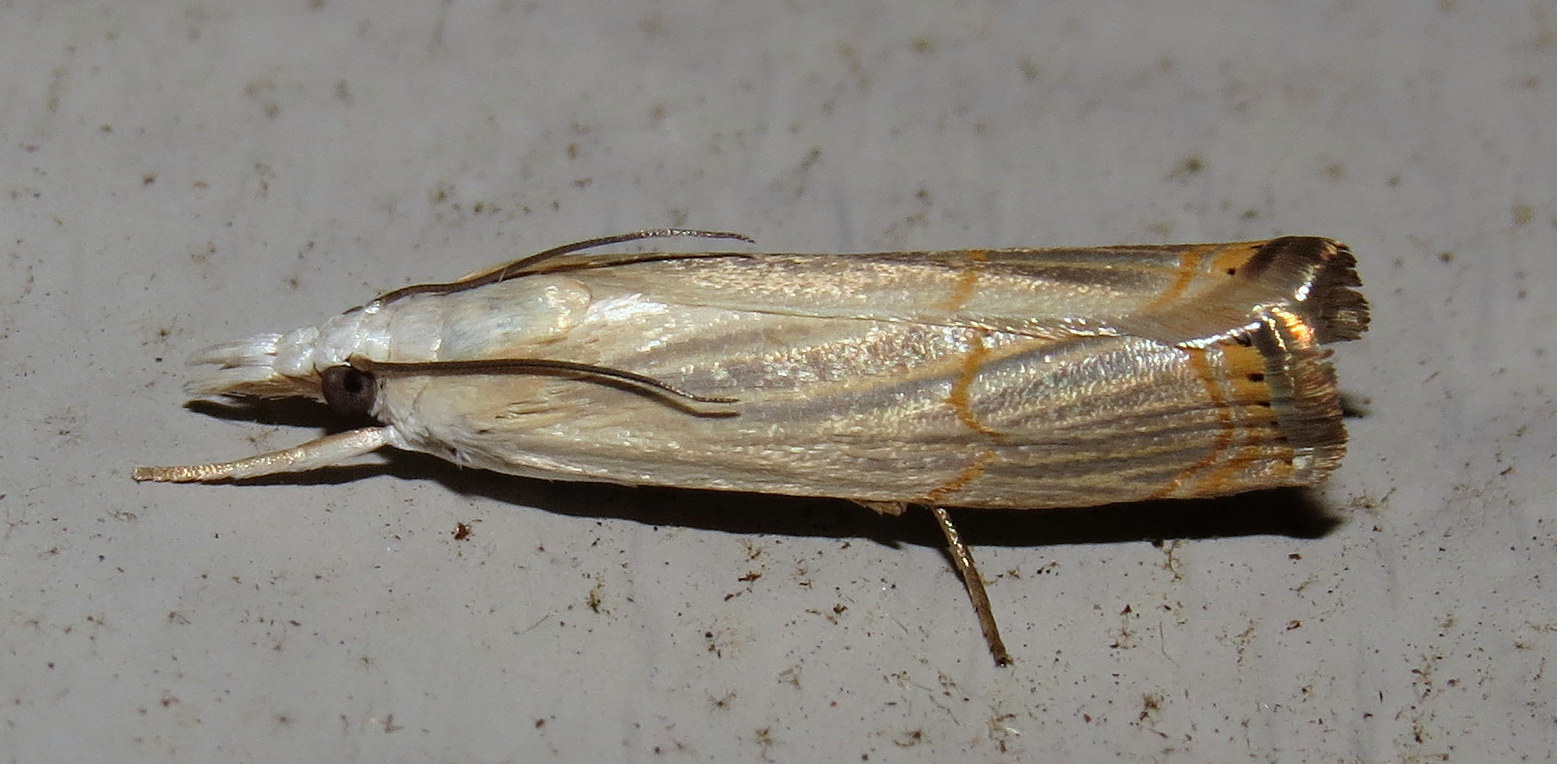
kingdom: Animalia
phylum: Arthropoda
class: Insecta
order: Lepidoptera
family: Crambidae
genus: Parapediasia
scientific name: Parapediasia decorellus
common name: Graceful grass-veneer
